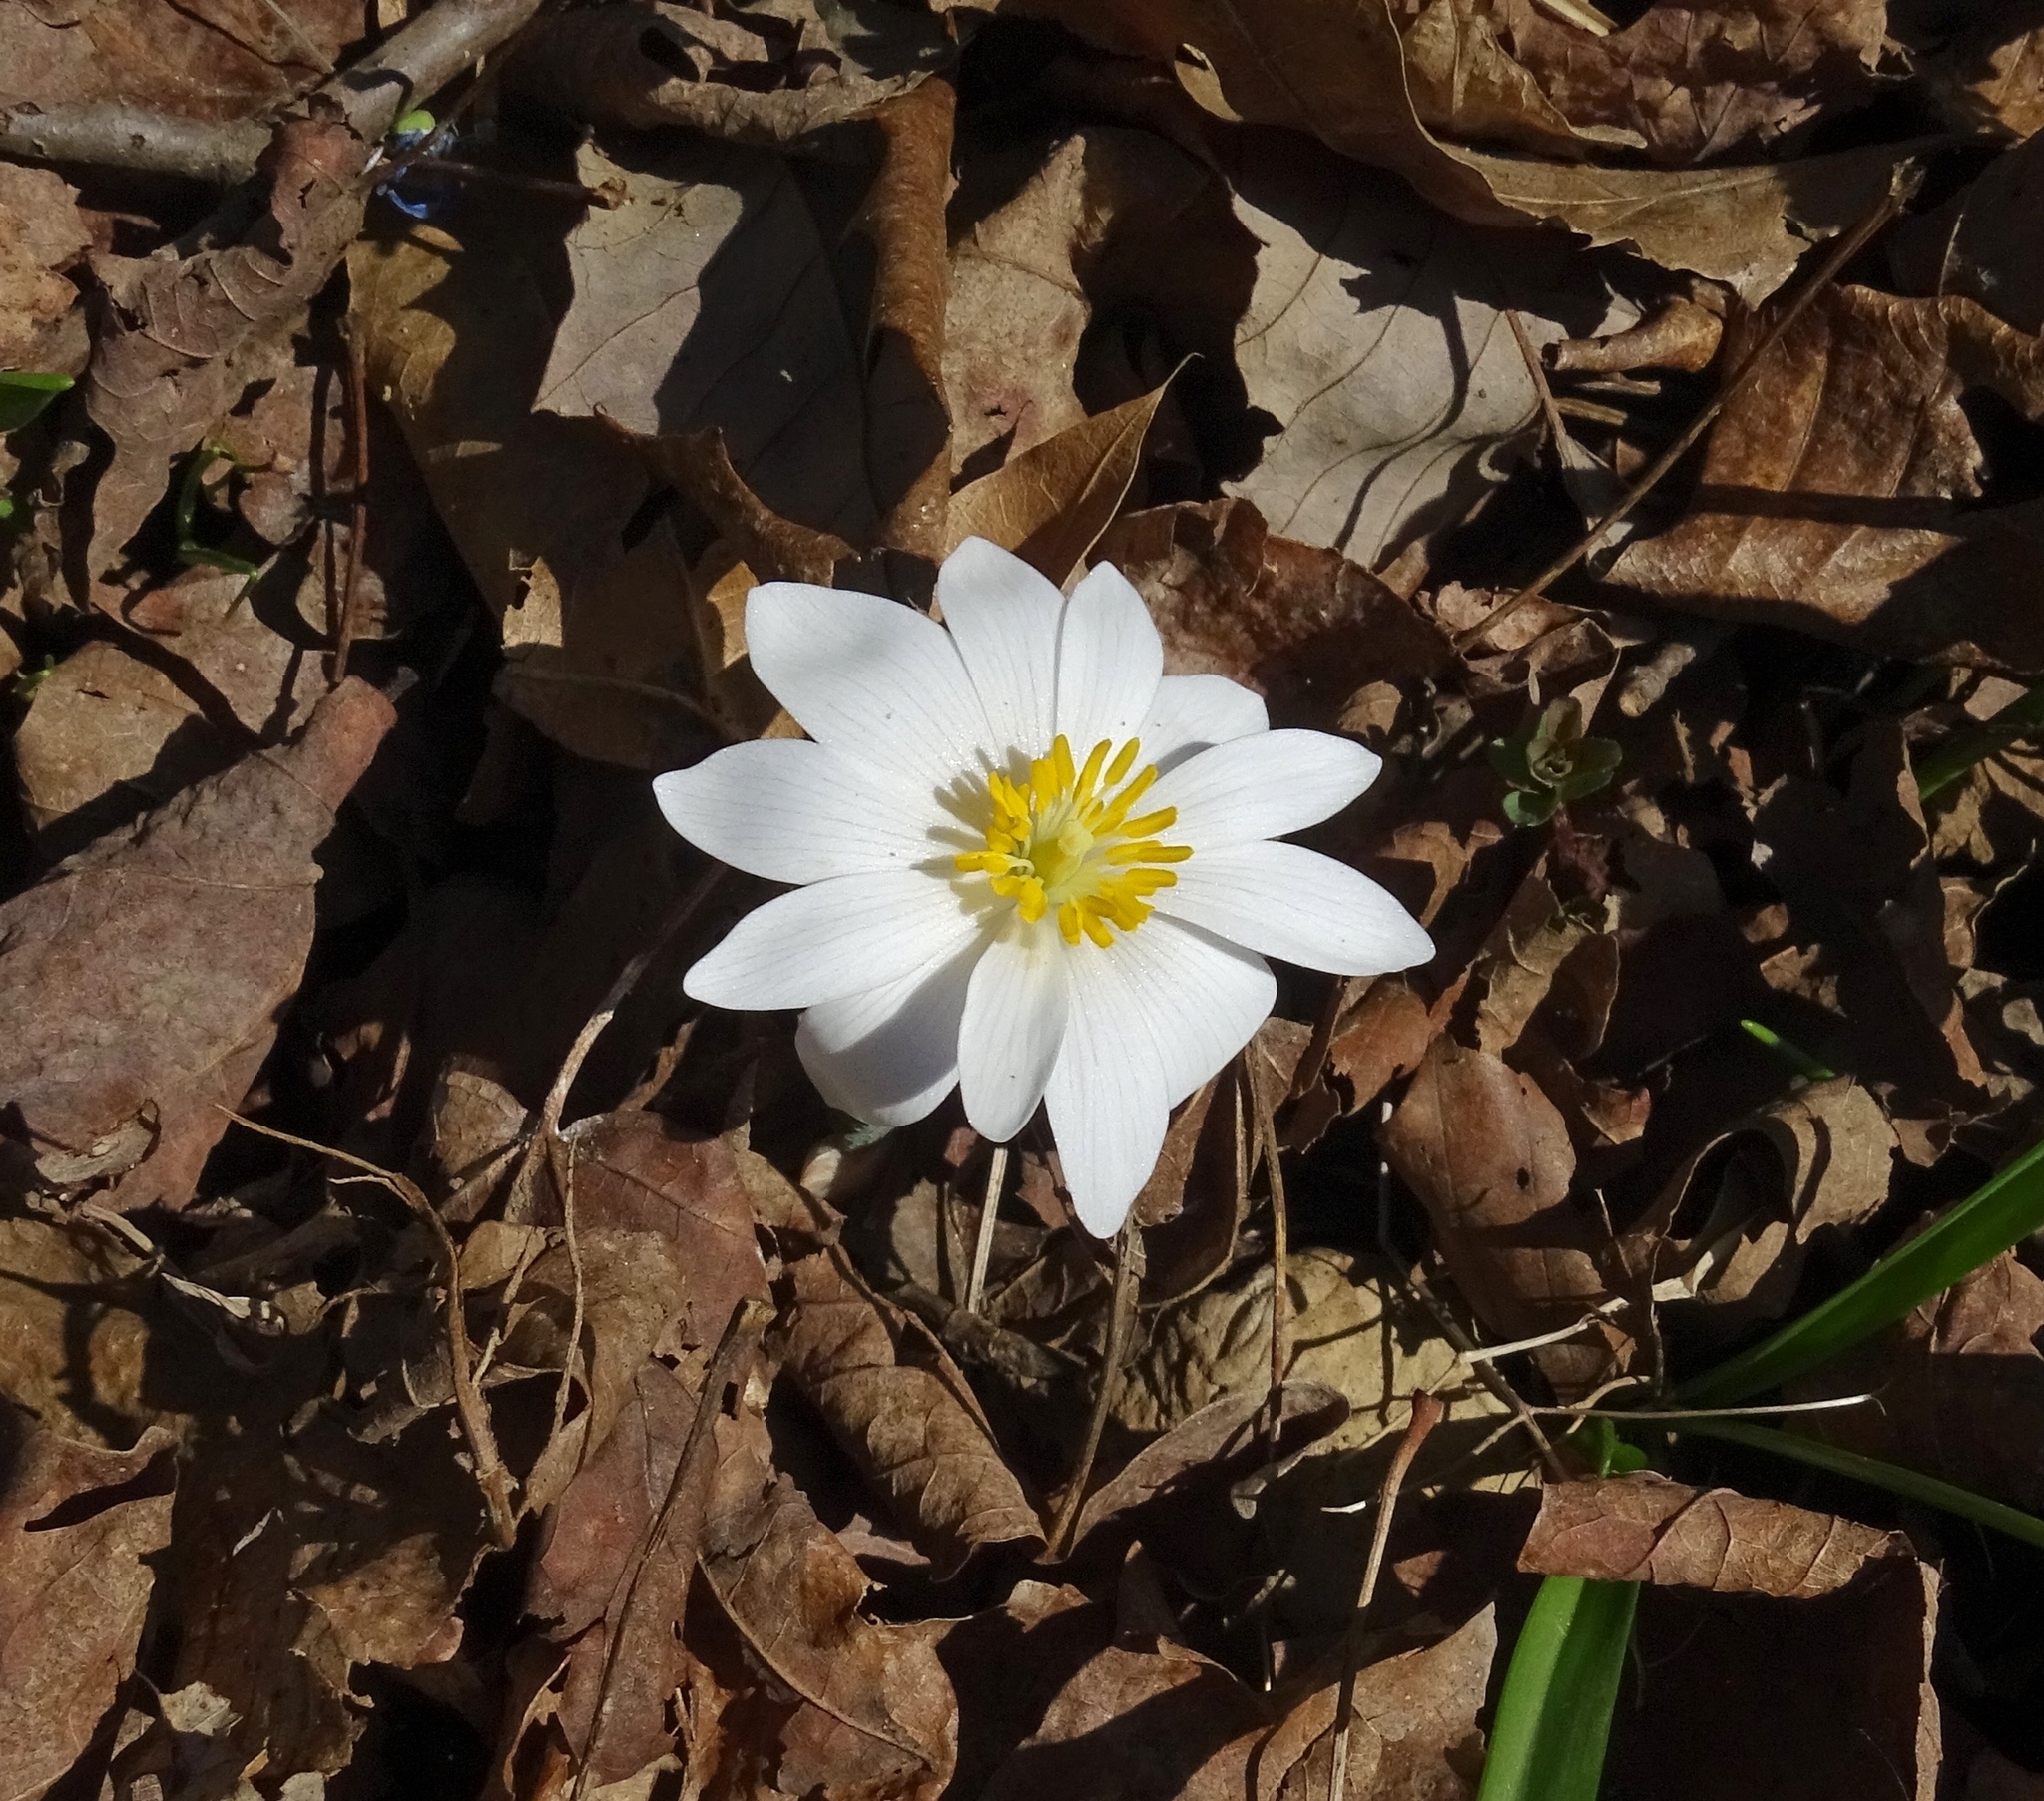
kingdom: Plantae
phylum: Tracheophyta
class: Magnoliopsida
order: Ranunculales
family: Papaveraceae
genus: Sanguinaria
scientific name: Sanguinaria canadensis
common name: Bloodroot
